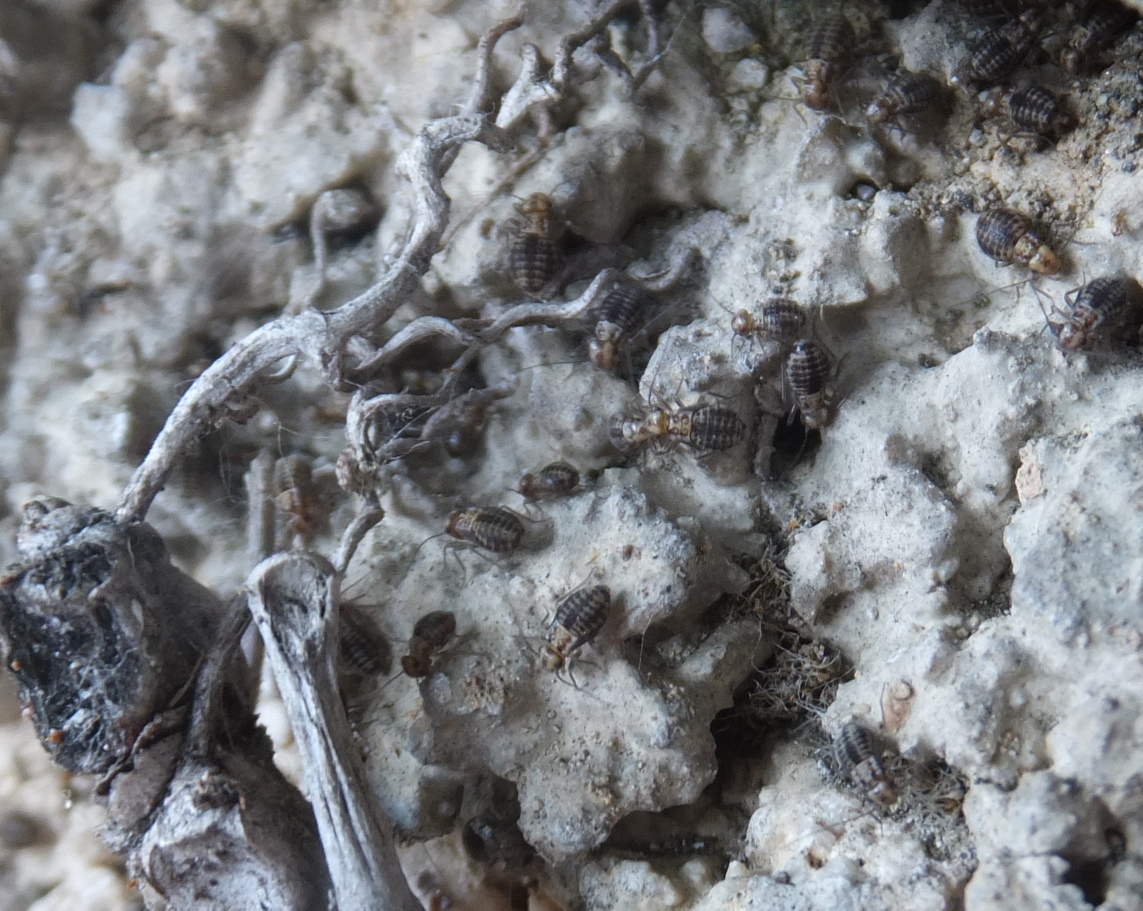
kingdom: Animalia
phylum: Arthropoda
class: Insecta
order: Psocodea
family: Psocidae
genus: Neopsocus
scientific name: Neopsocus rhenanus
